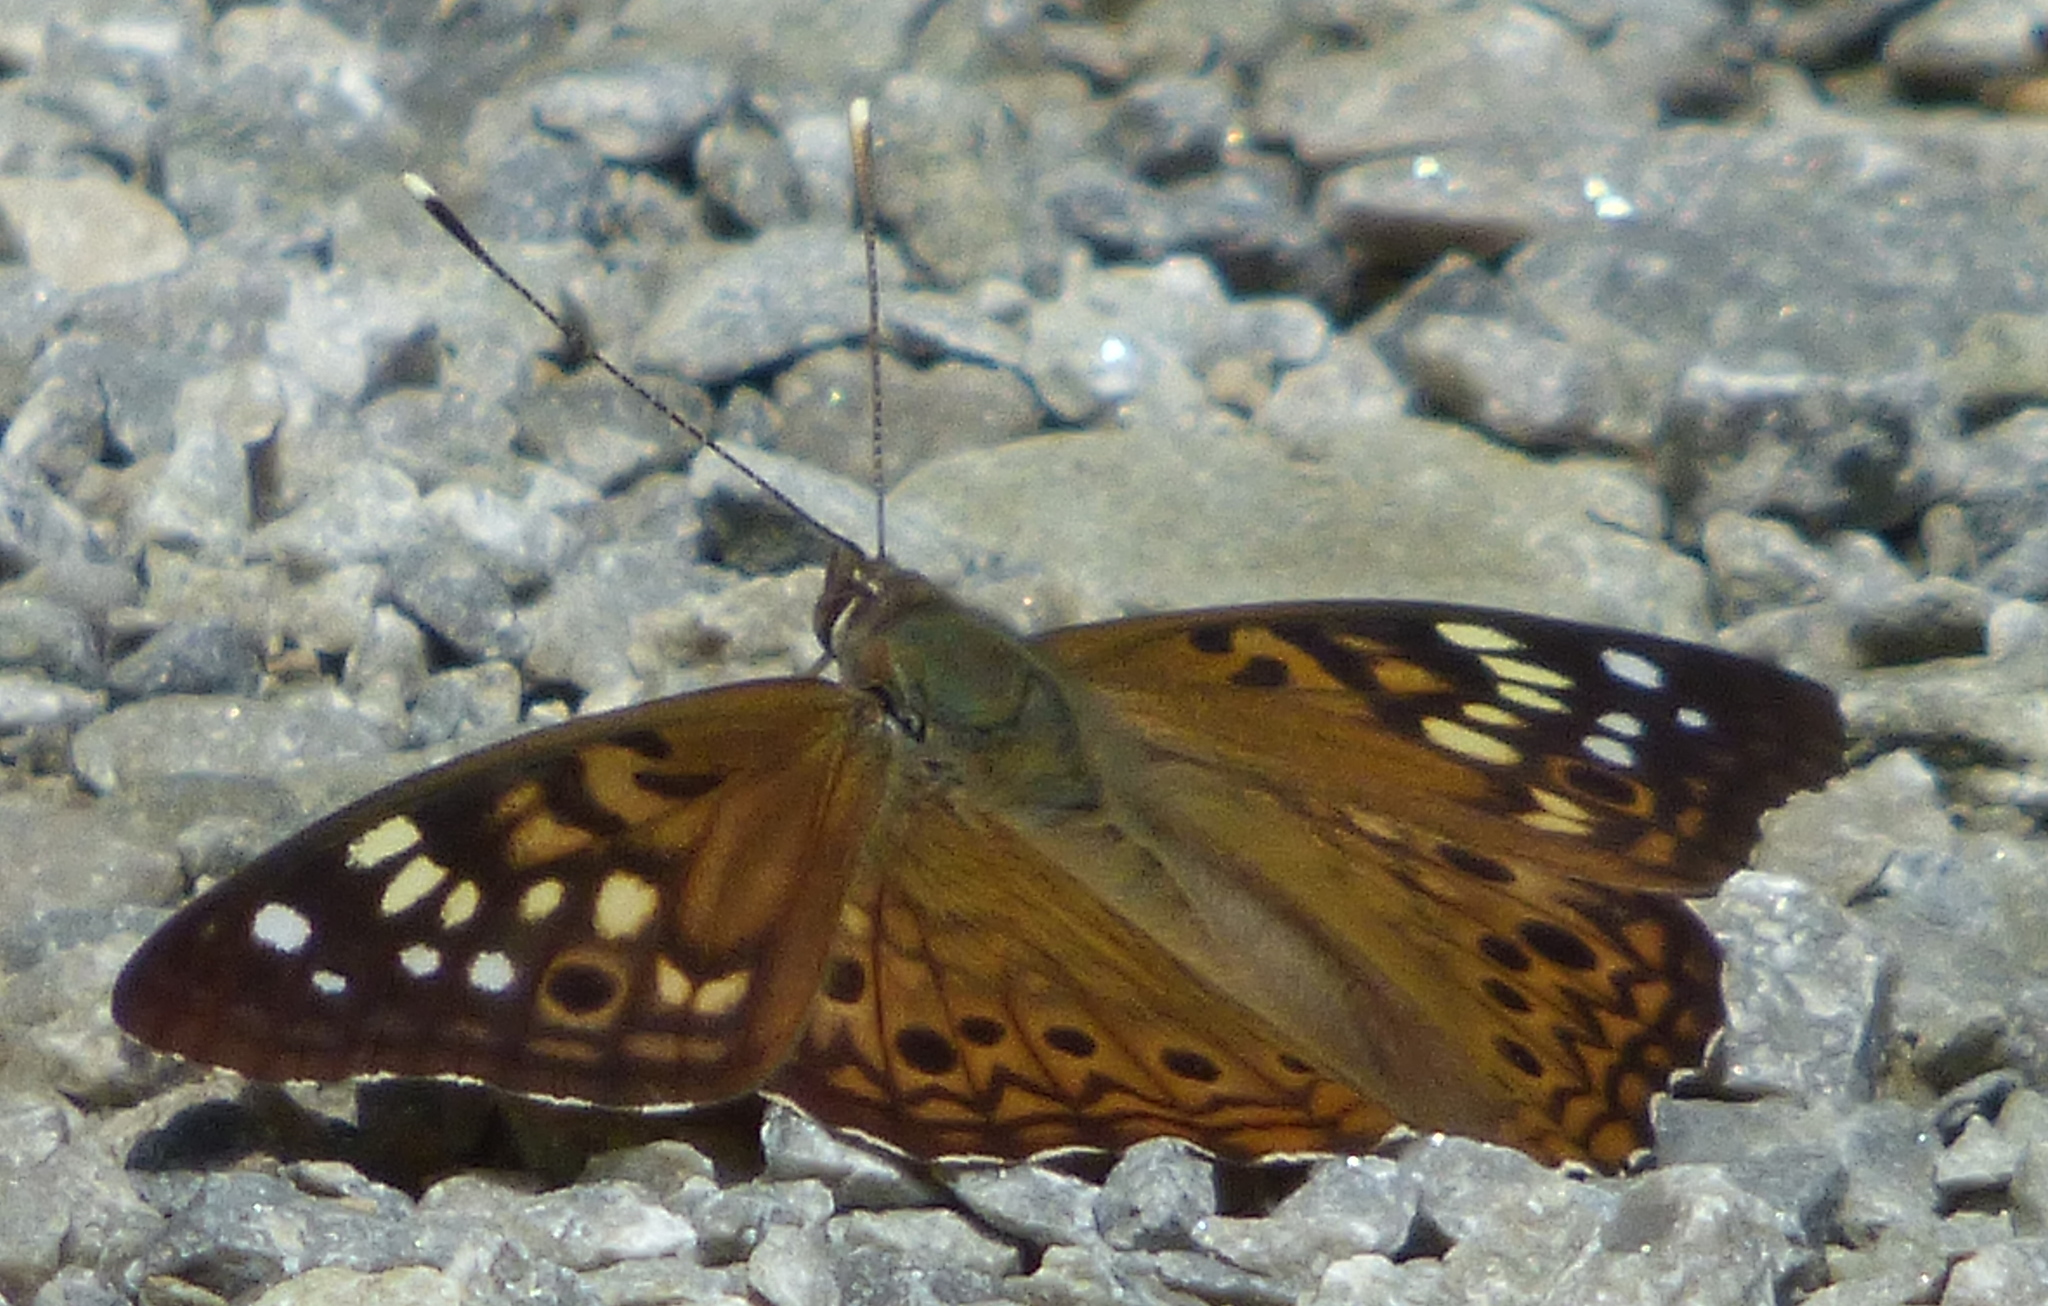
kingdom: Animalia
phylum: Arthropoda
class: Insecta
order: Lepidoptera
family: Nymphalidae
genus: Asterocampa
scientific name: Asterocampa celtis
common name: Hackberry emperor
